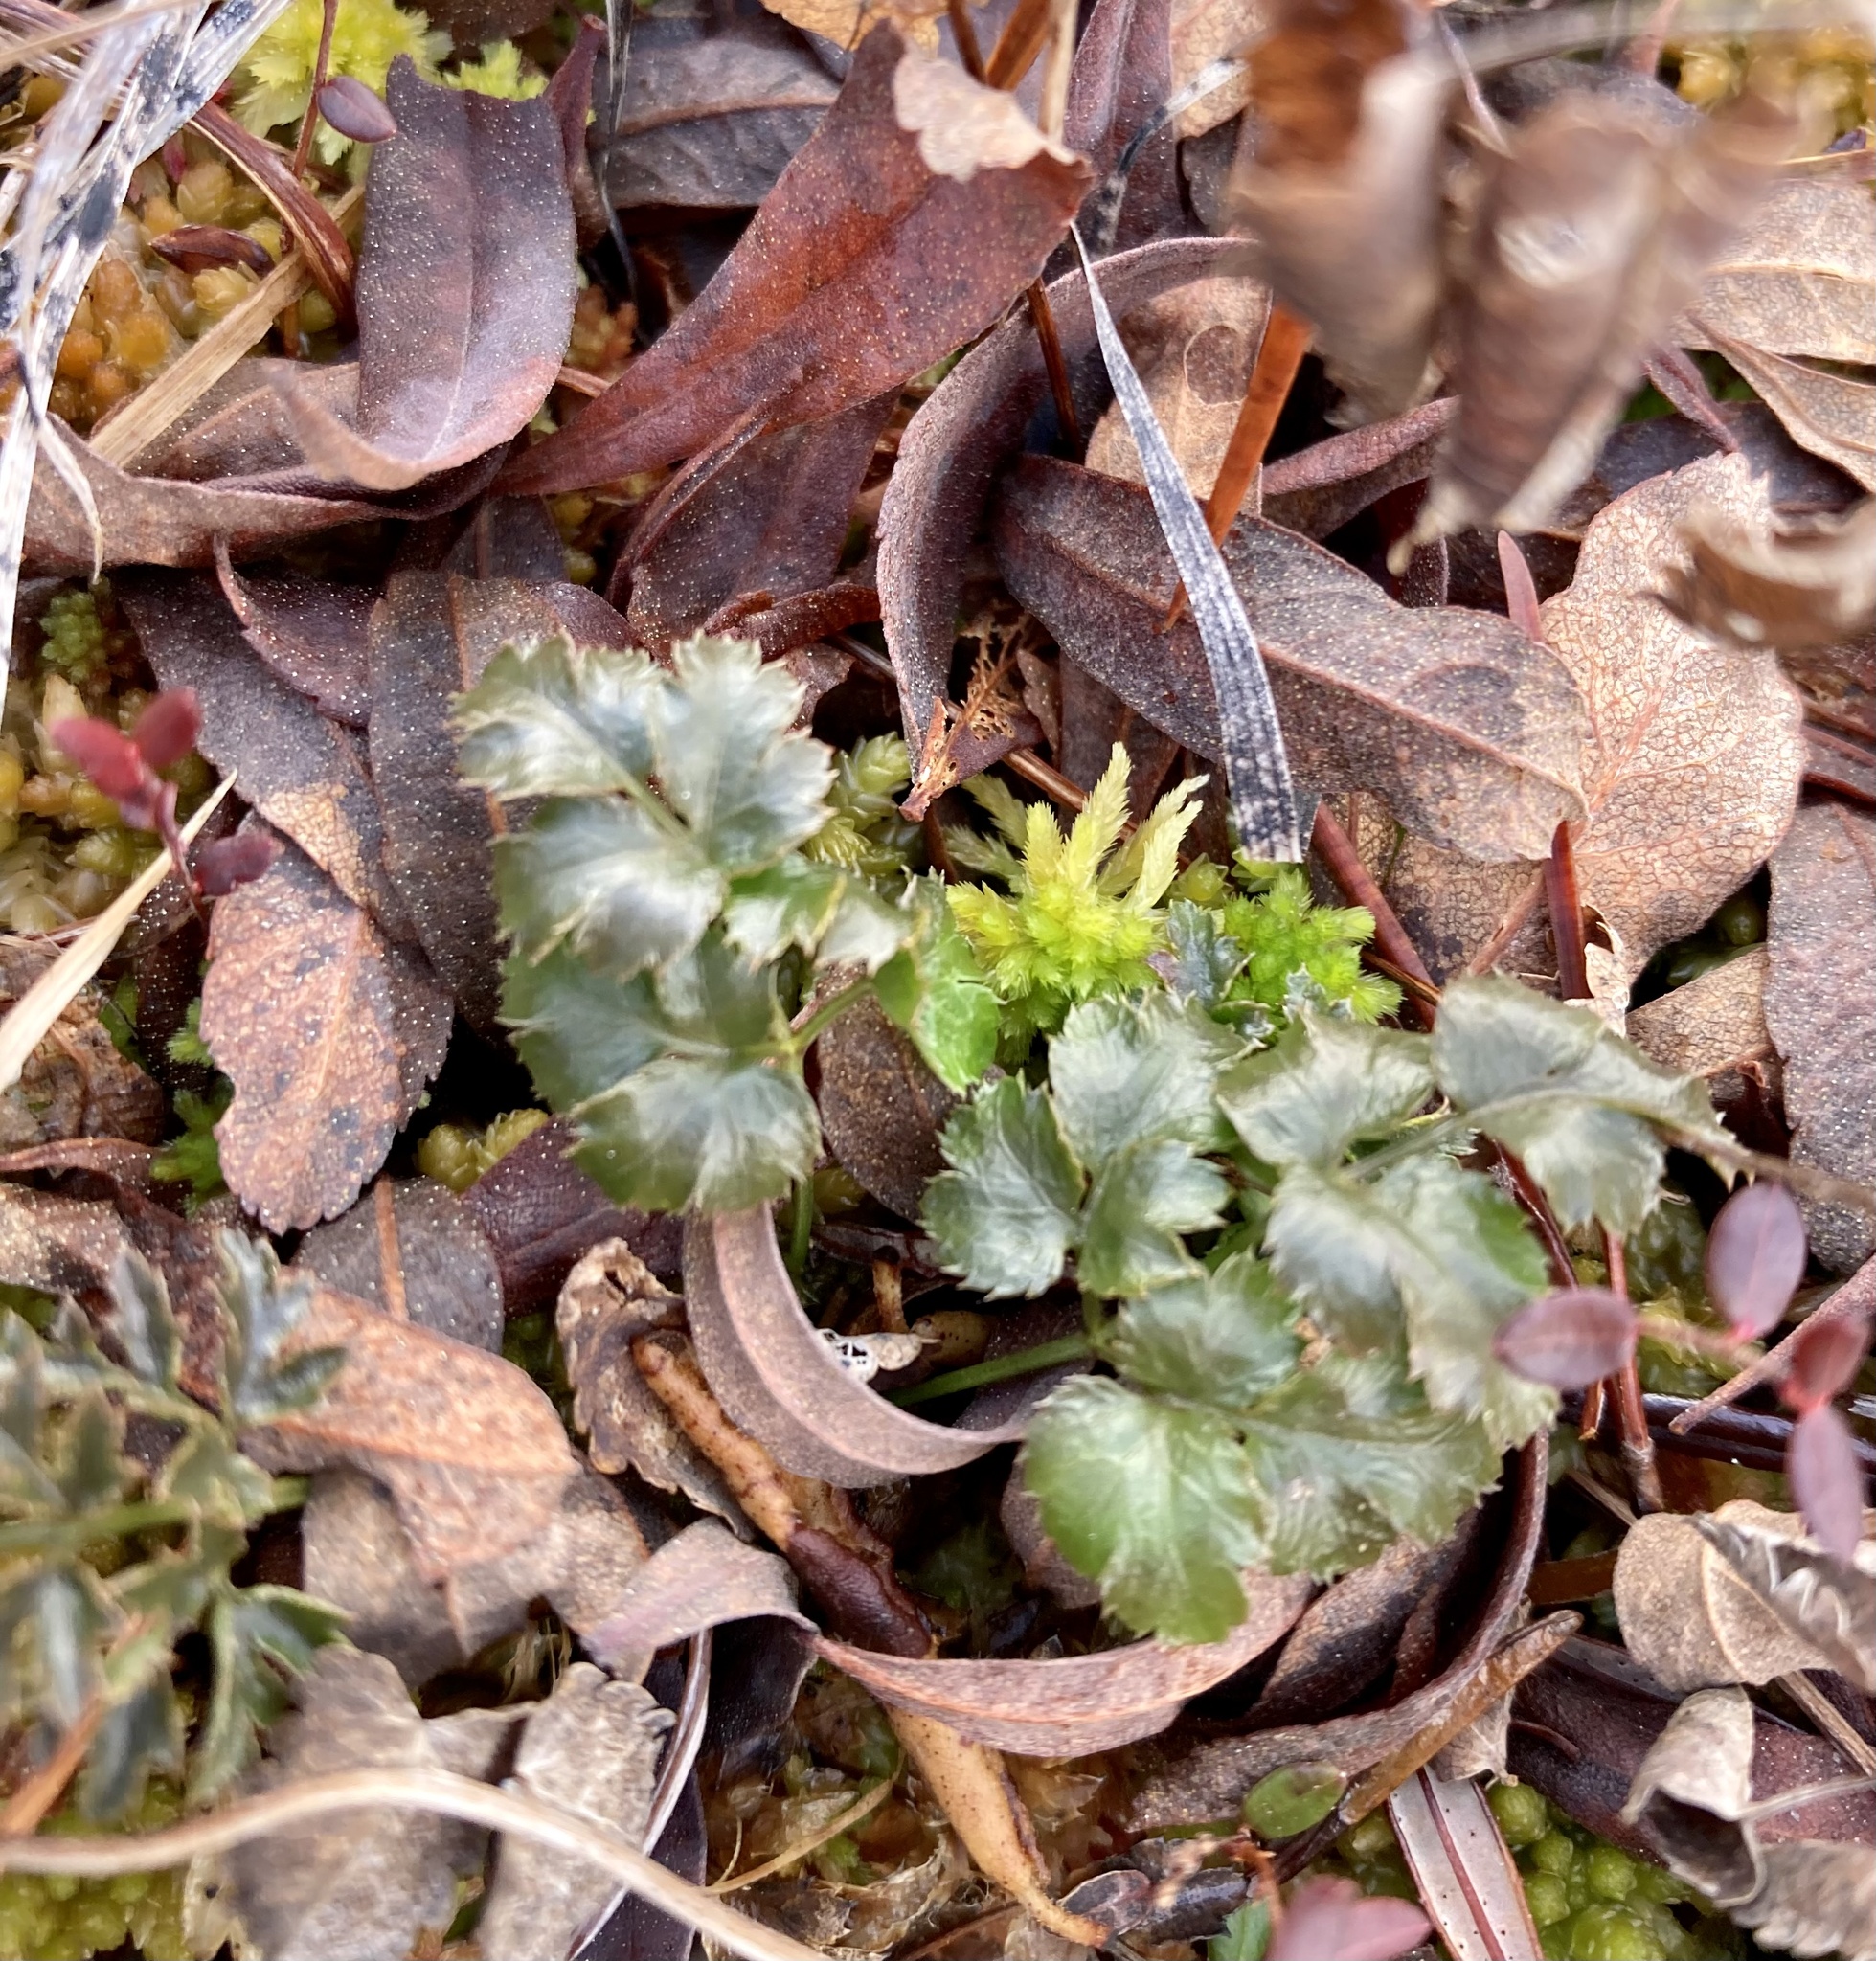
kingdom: Plantae
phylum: Tracheophyta
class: Magnoliopsida
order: Ranunculales
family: Ranunculaceae
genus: Coptis
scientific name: Coptis aspleniifolia
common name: Fern-leaved goldthread
